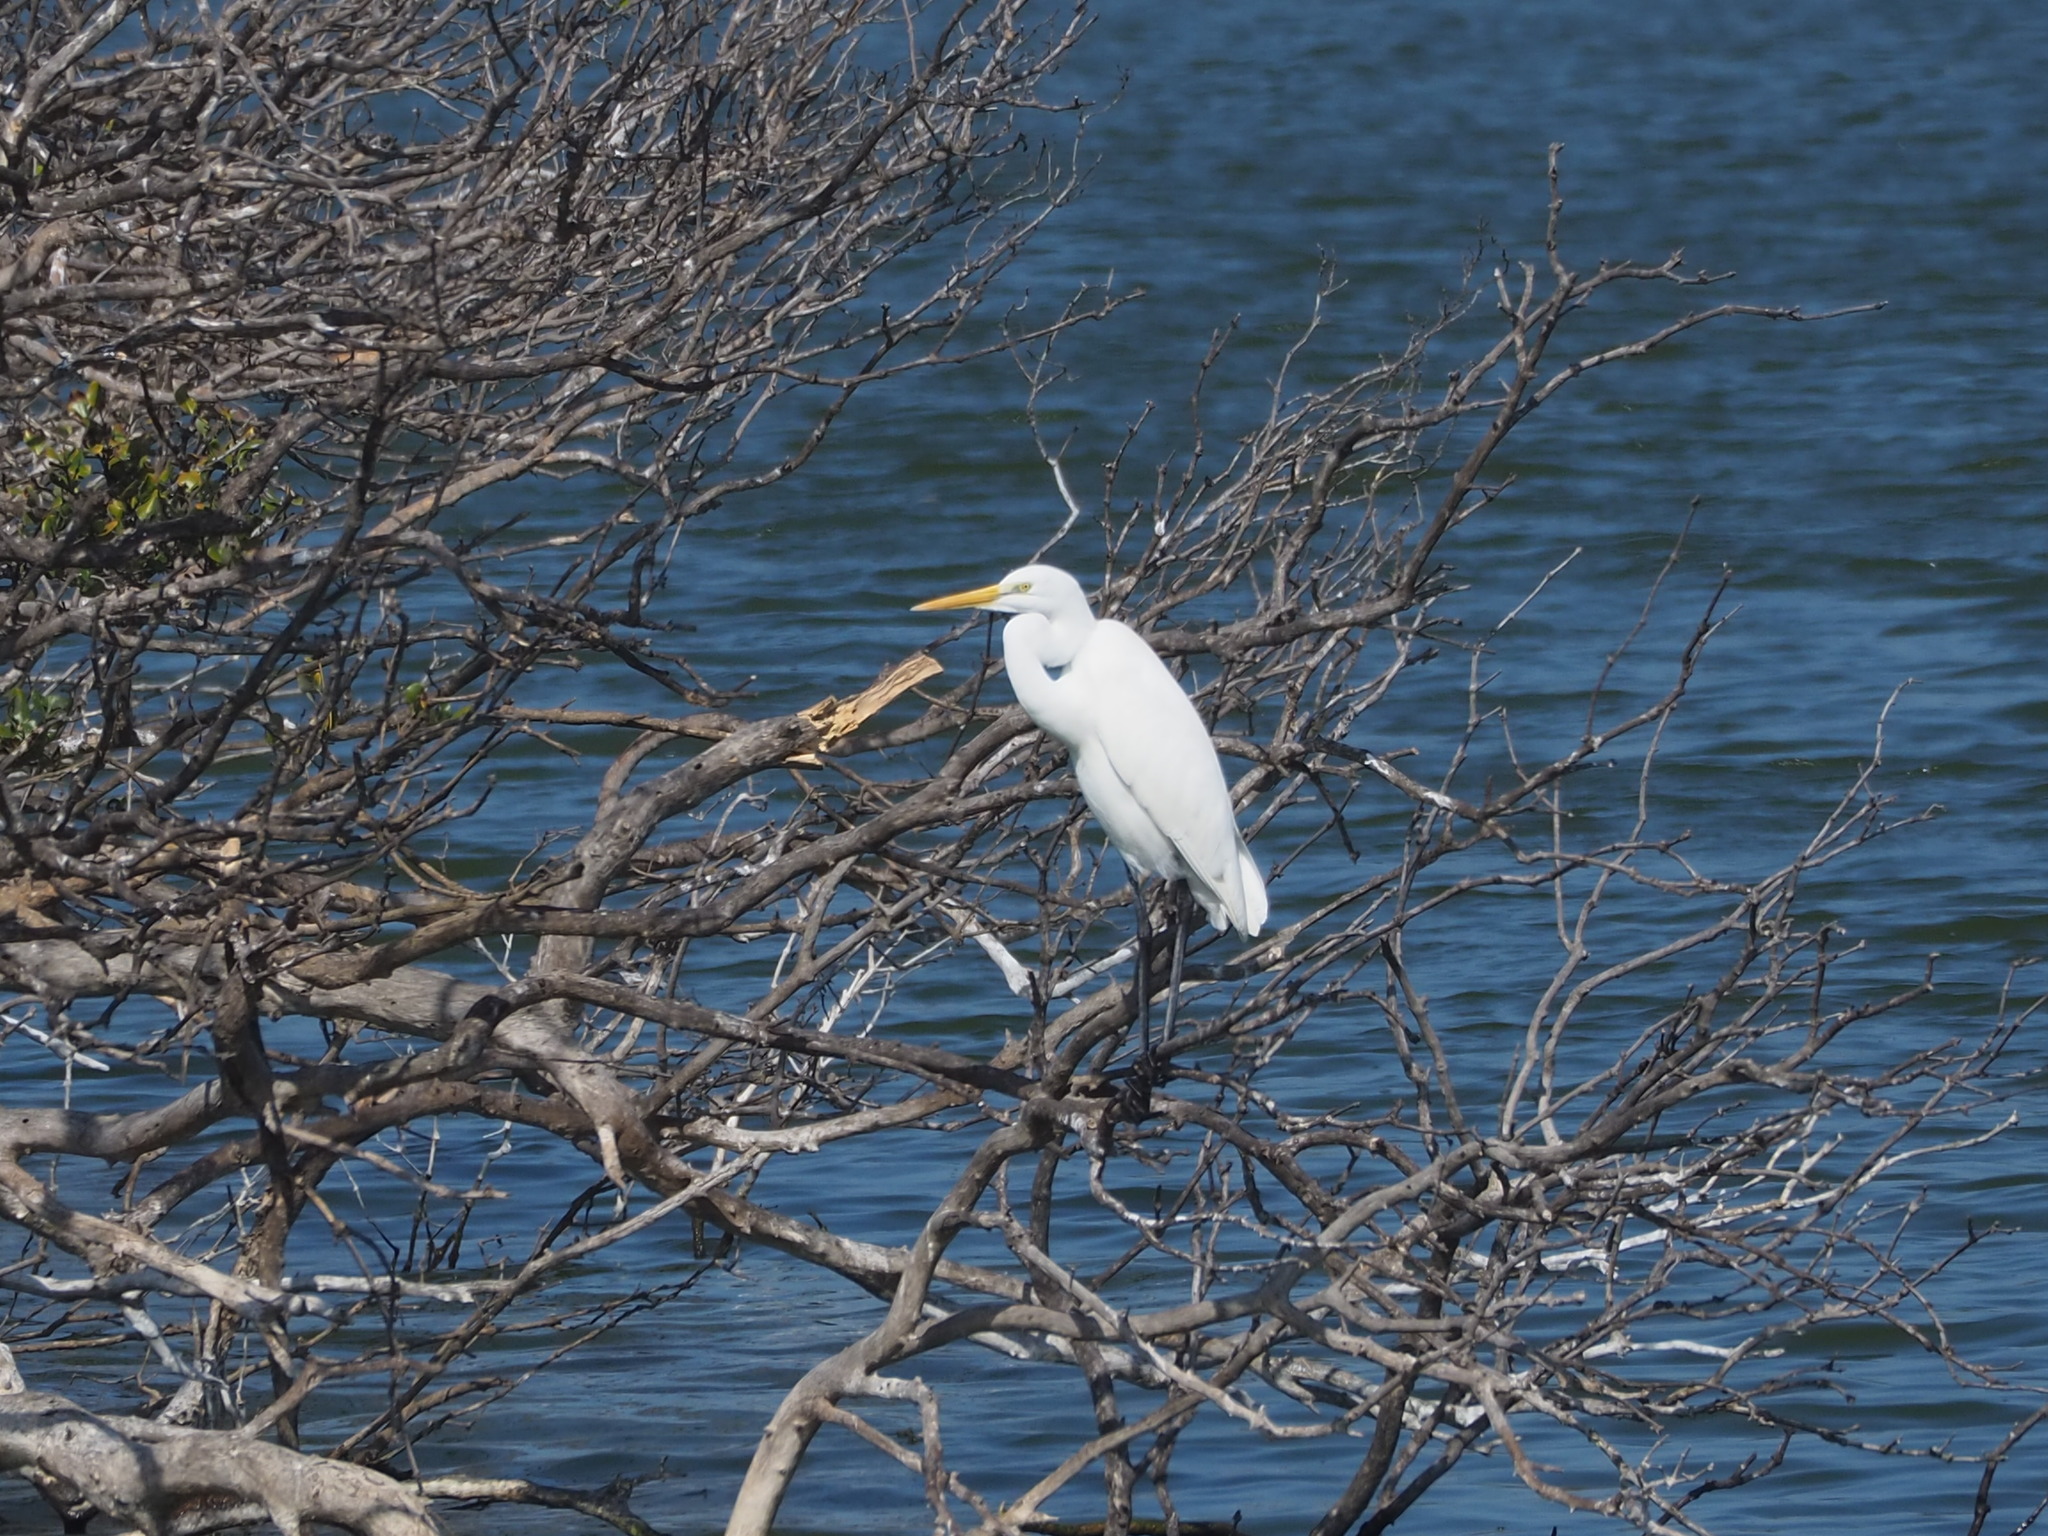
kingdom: Animalia
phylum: Chordata
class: Aves
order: Pelecaniformes
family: Ardeidae
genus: Ardea
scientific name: Ardea alba
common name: Great egret
